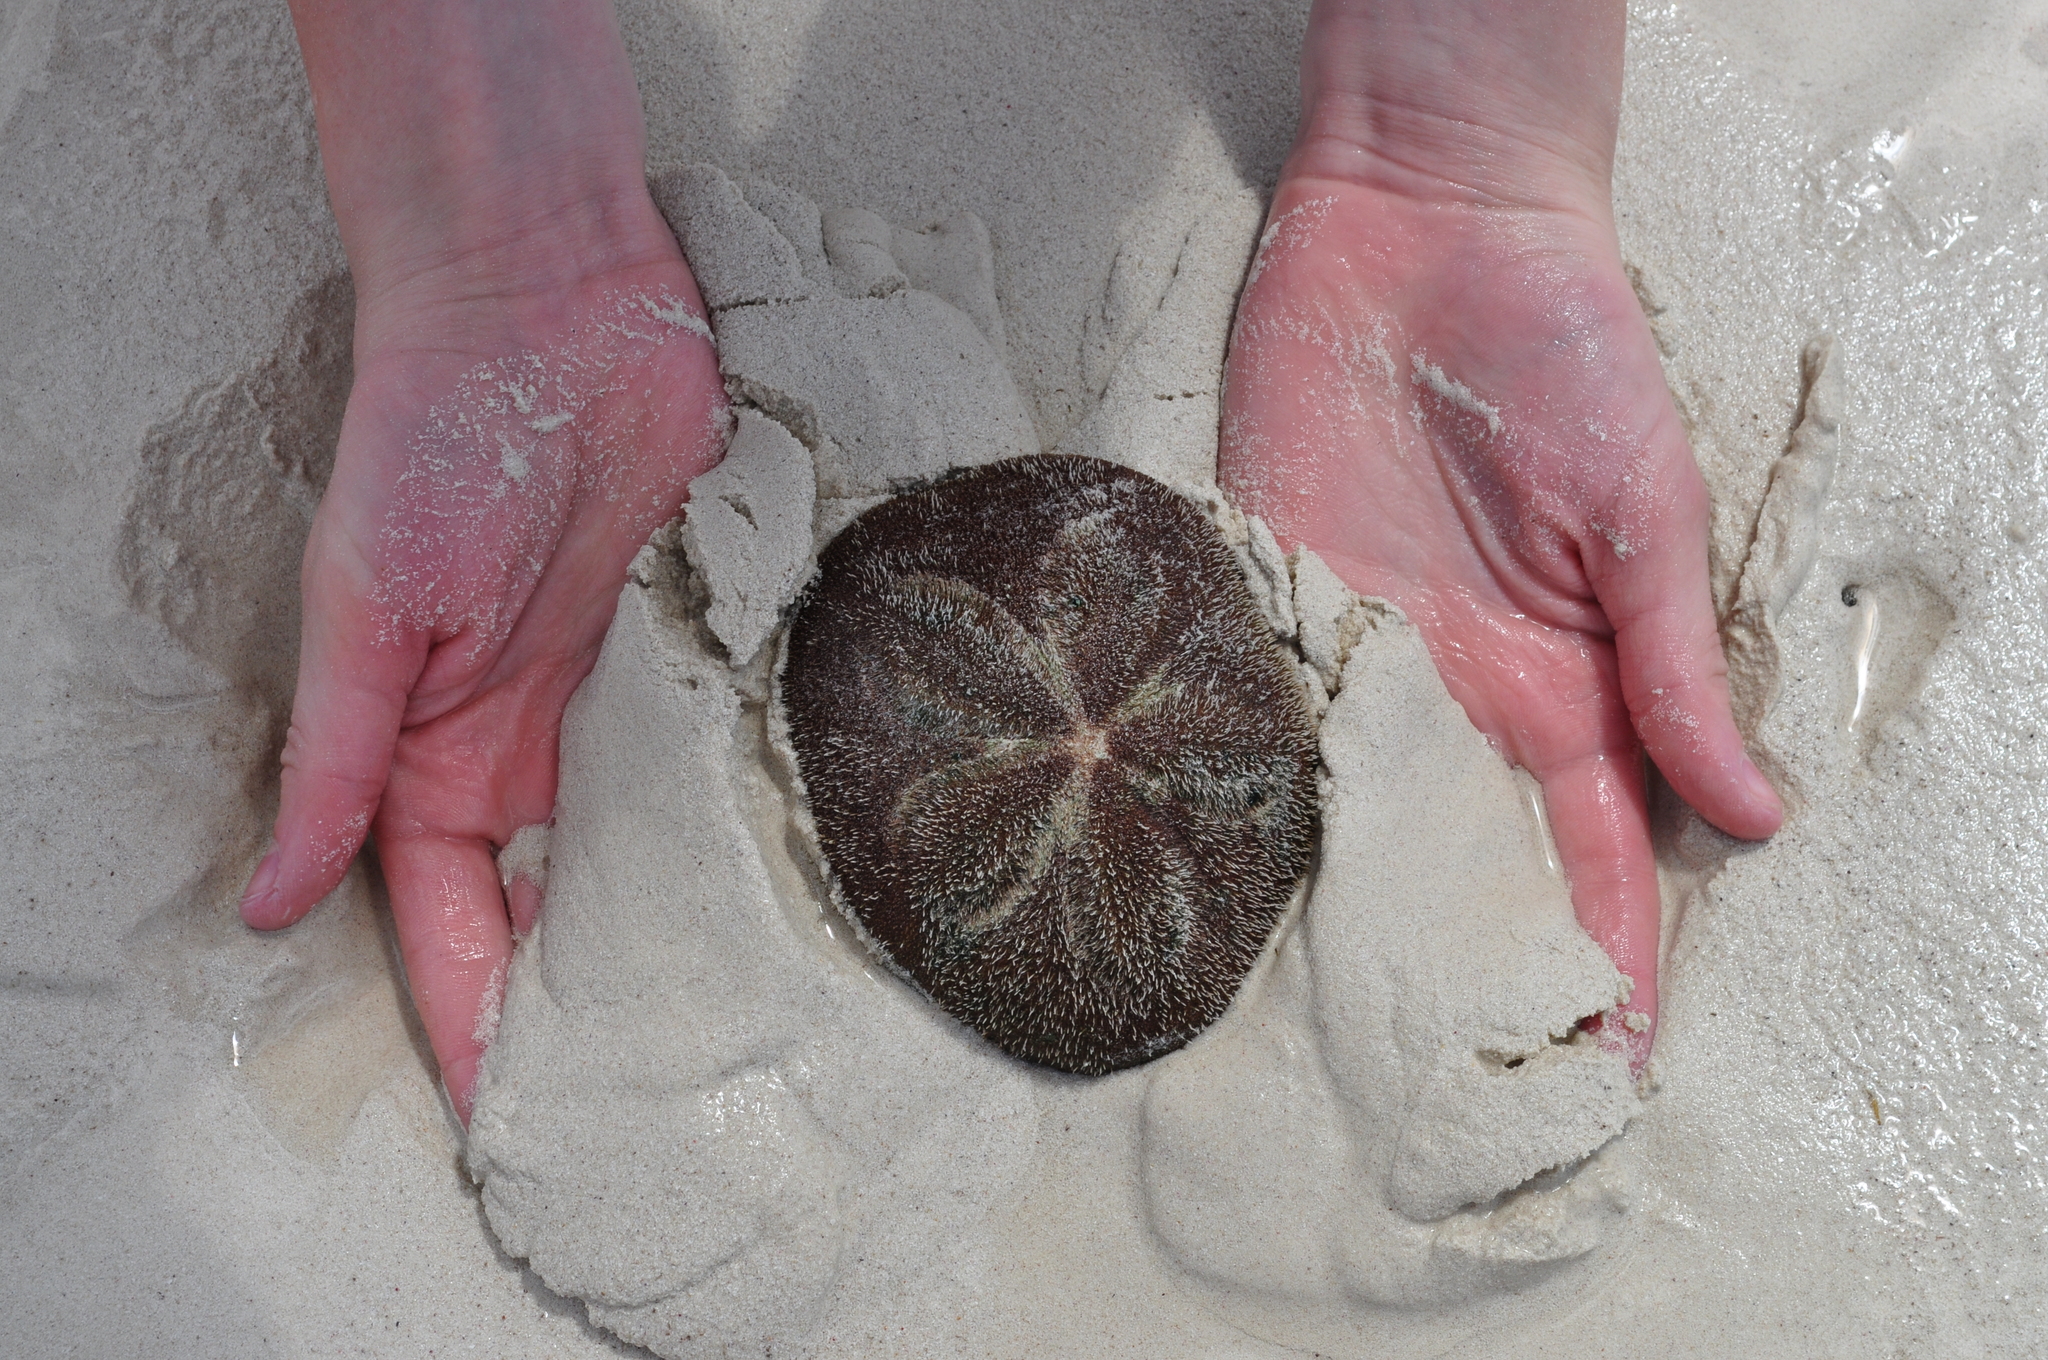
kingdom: Animalia
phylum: Echinodermata
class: Echinoidea
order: Clypeasteroida
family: Clypeasteridae
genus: Clypeaster
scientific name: Clypeaster rosaceus
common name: Sea biscuit
